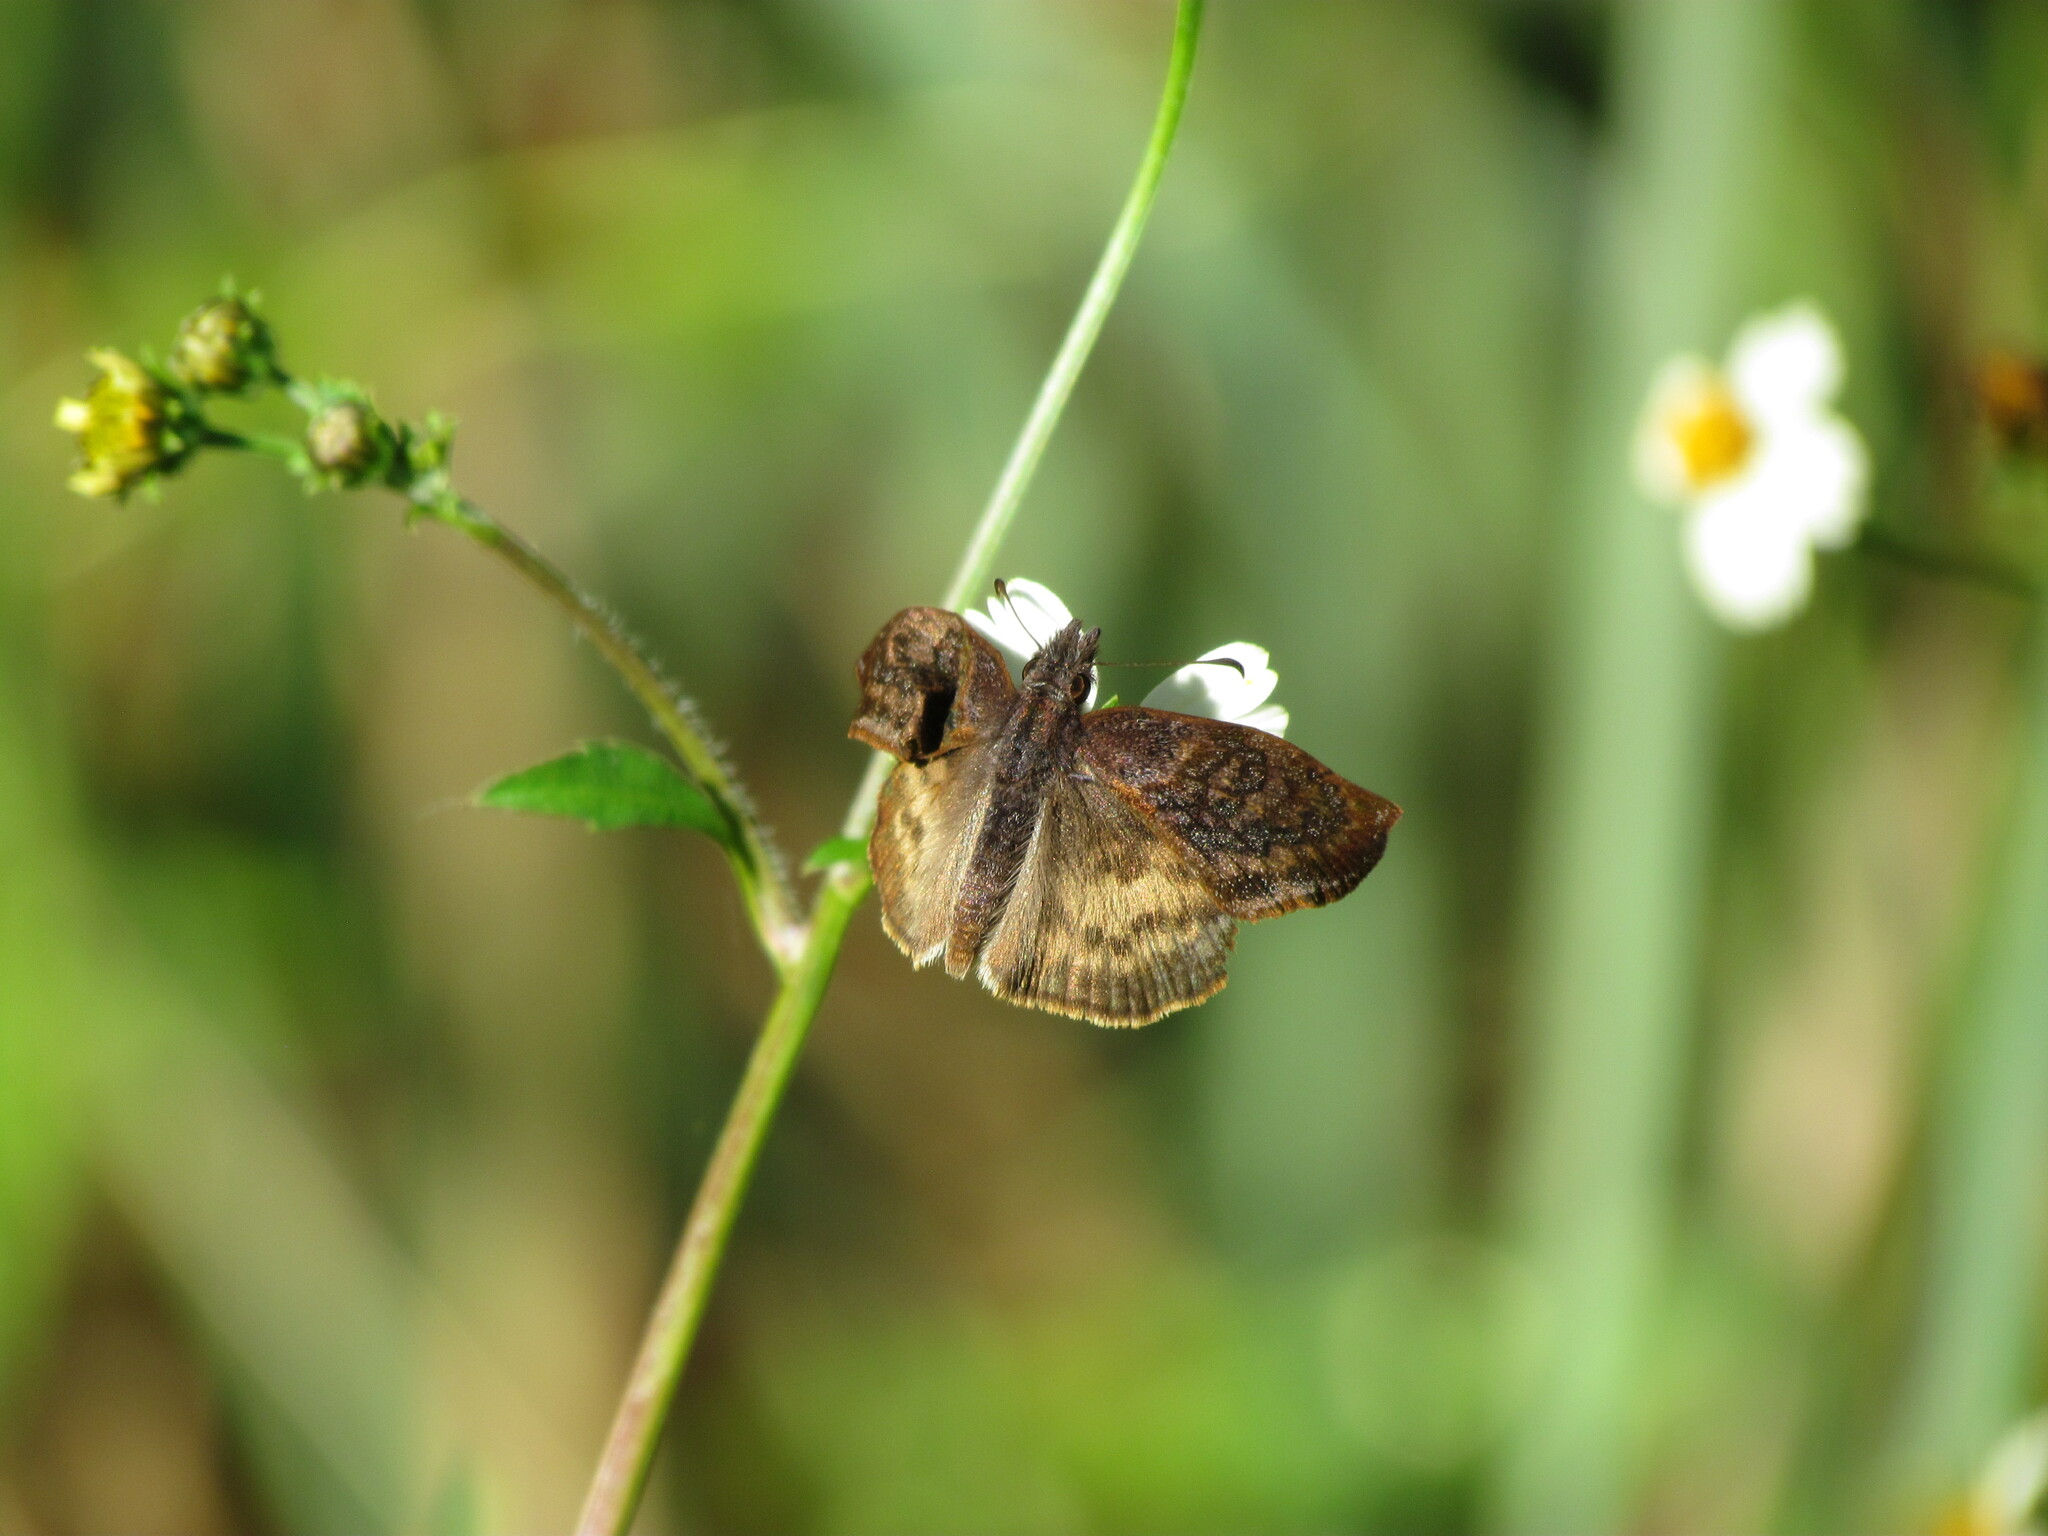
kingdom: Animalia
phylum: Arthropoda
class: Insecta
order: Lepidoptera
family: Hesperiidae
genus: Theagenes
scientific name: Theagenes dichrous
